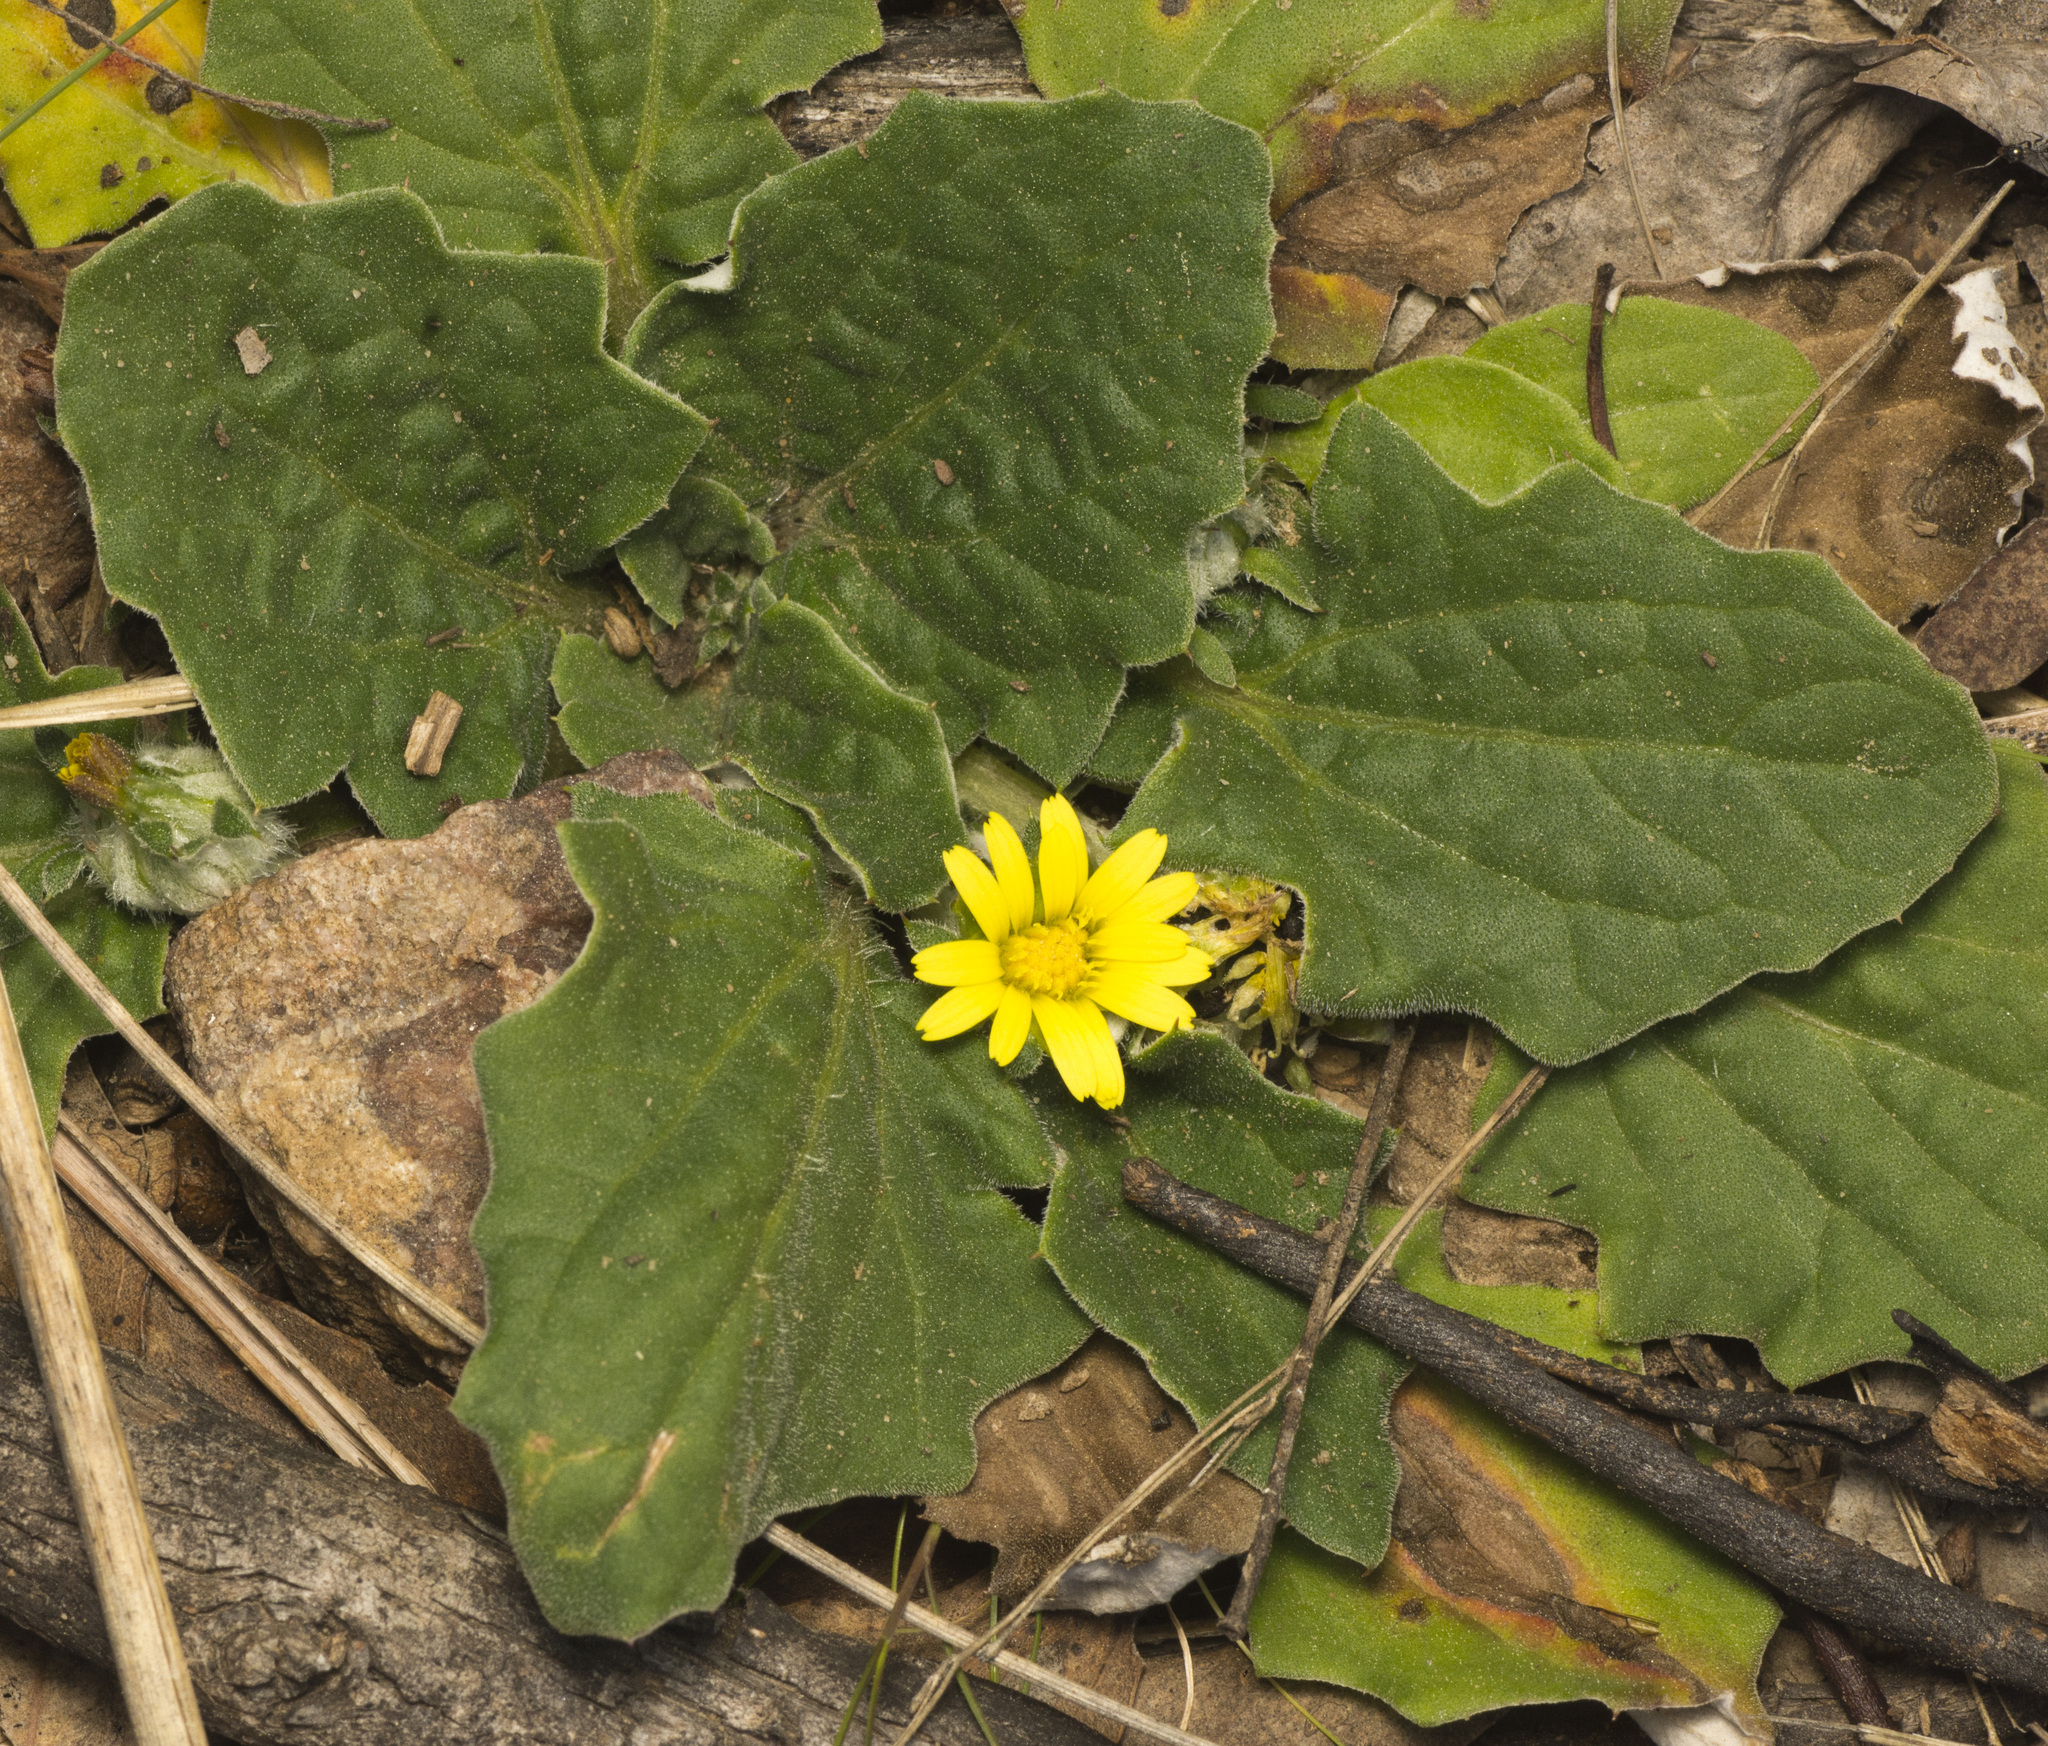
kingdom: Plantae
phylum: Tracheophyta
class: Magnoliopsida
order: Asterales
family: Asteraceae
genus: Cymbonotus
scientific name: Cymbonotus
